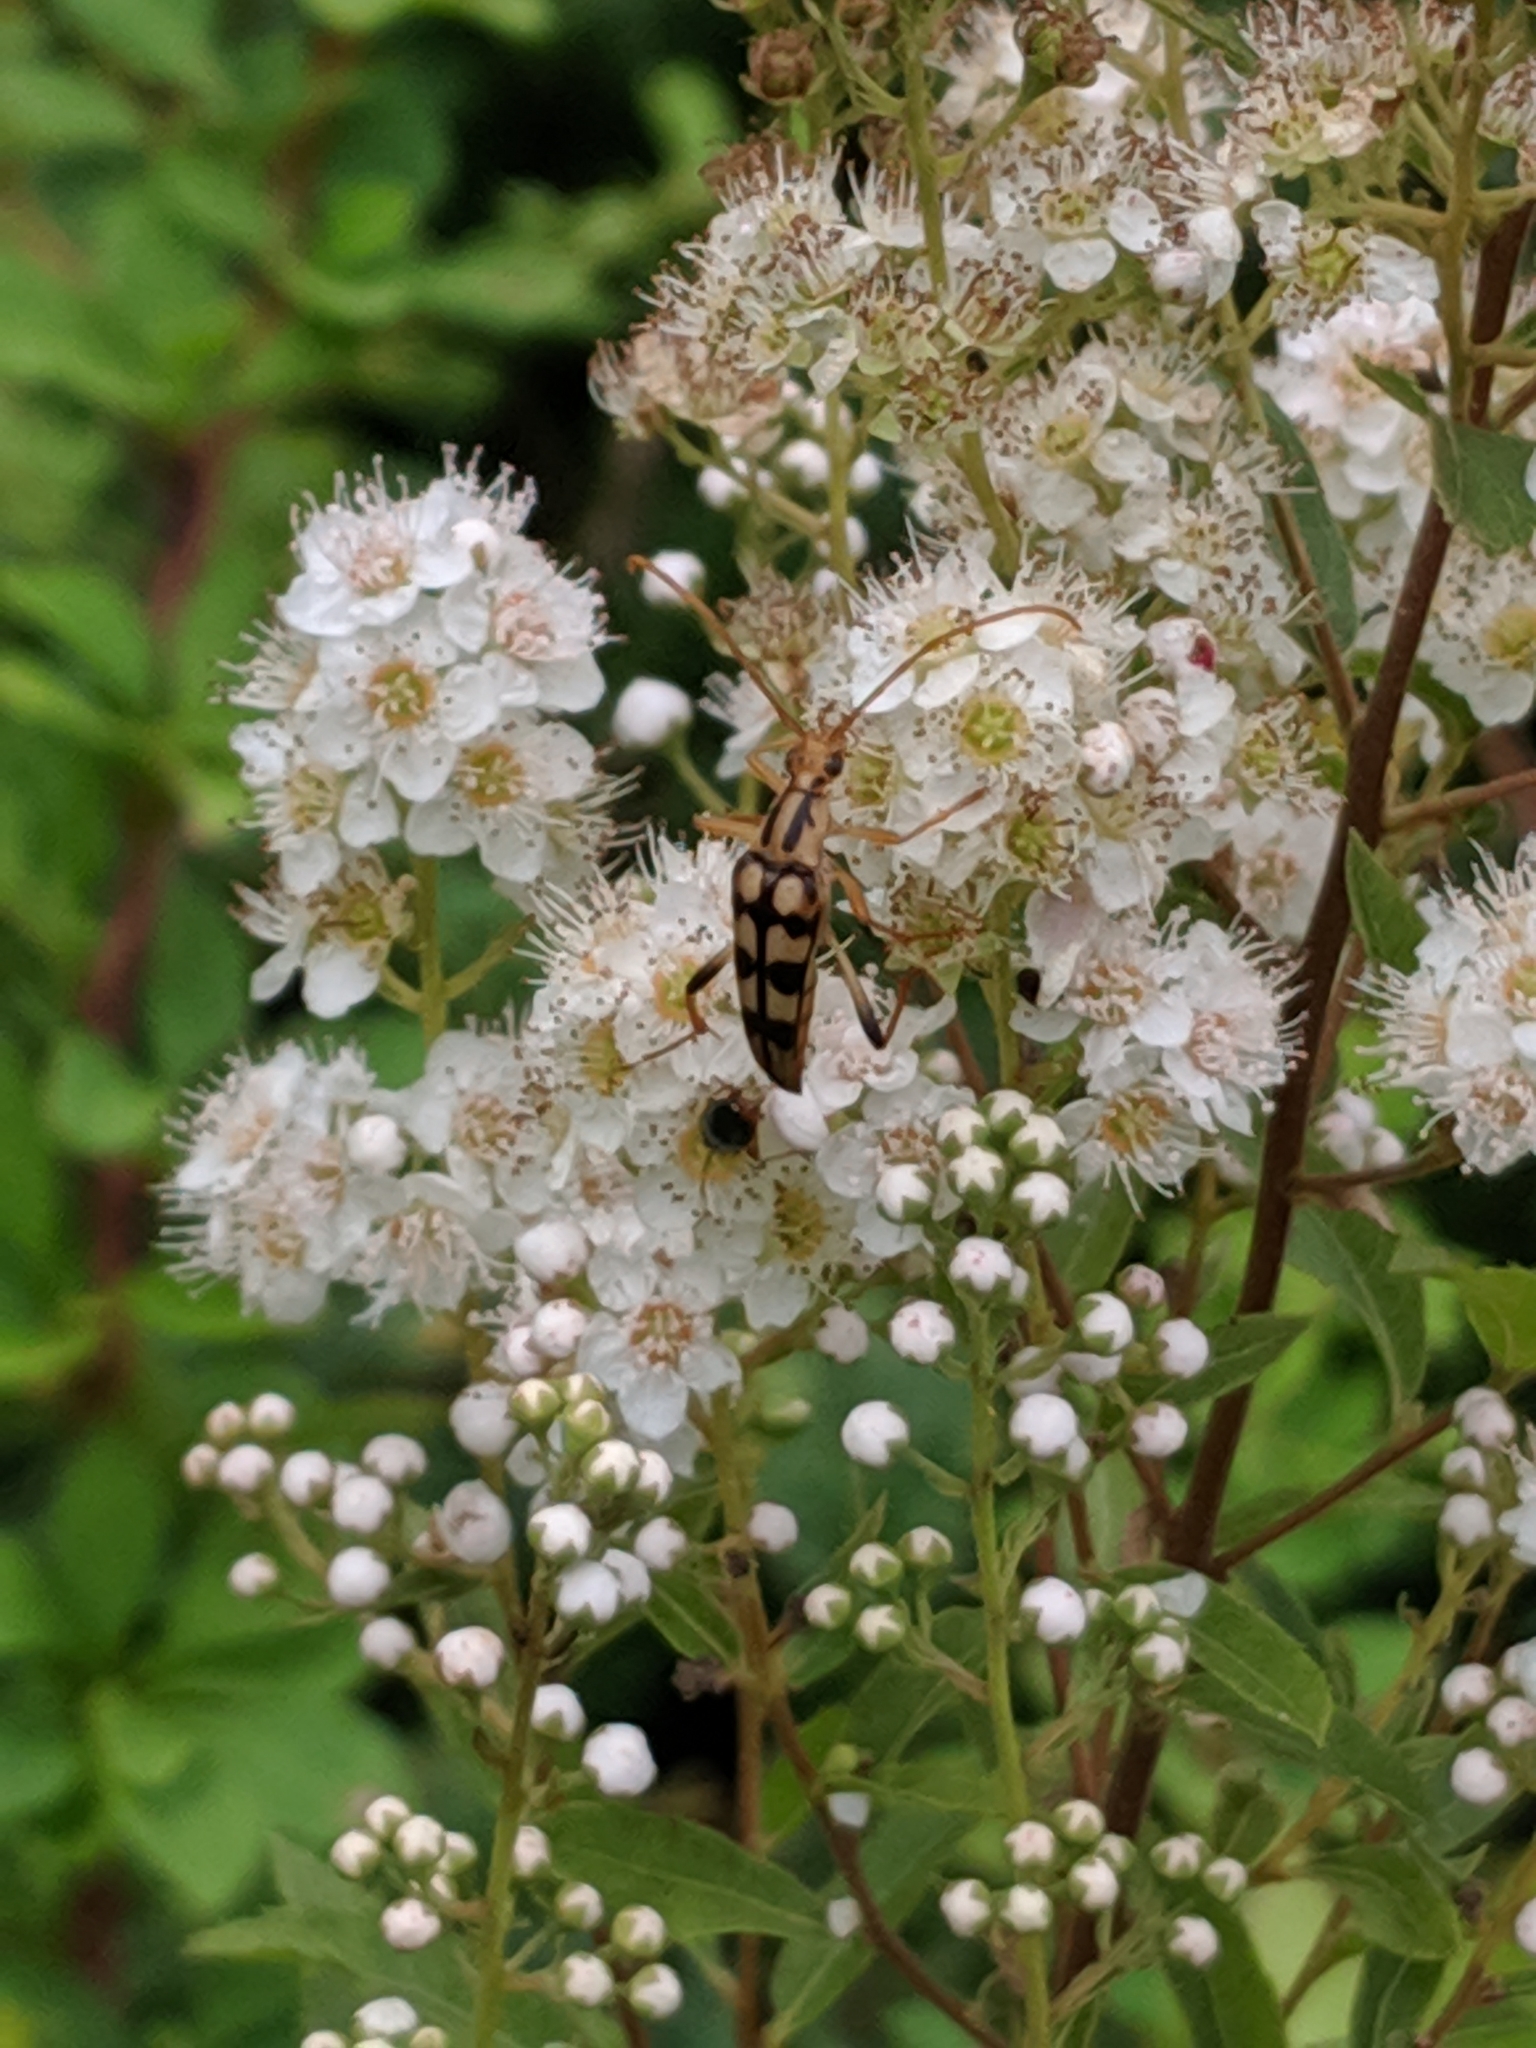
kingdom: Animalia
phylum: Arthropoda
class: Insecta
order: Coleoptera
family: Cerambycidae
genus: Strangalia
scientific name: Strangalia luteicornis
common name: Yellow-horned flower longhorn beetle
